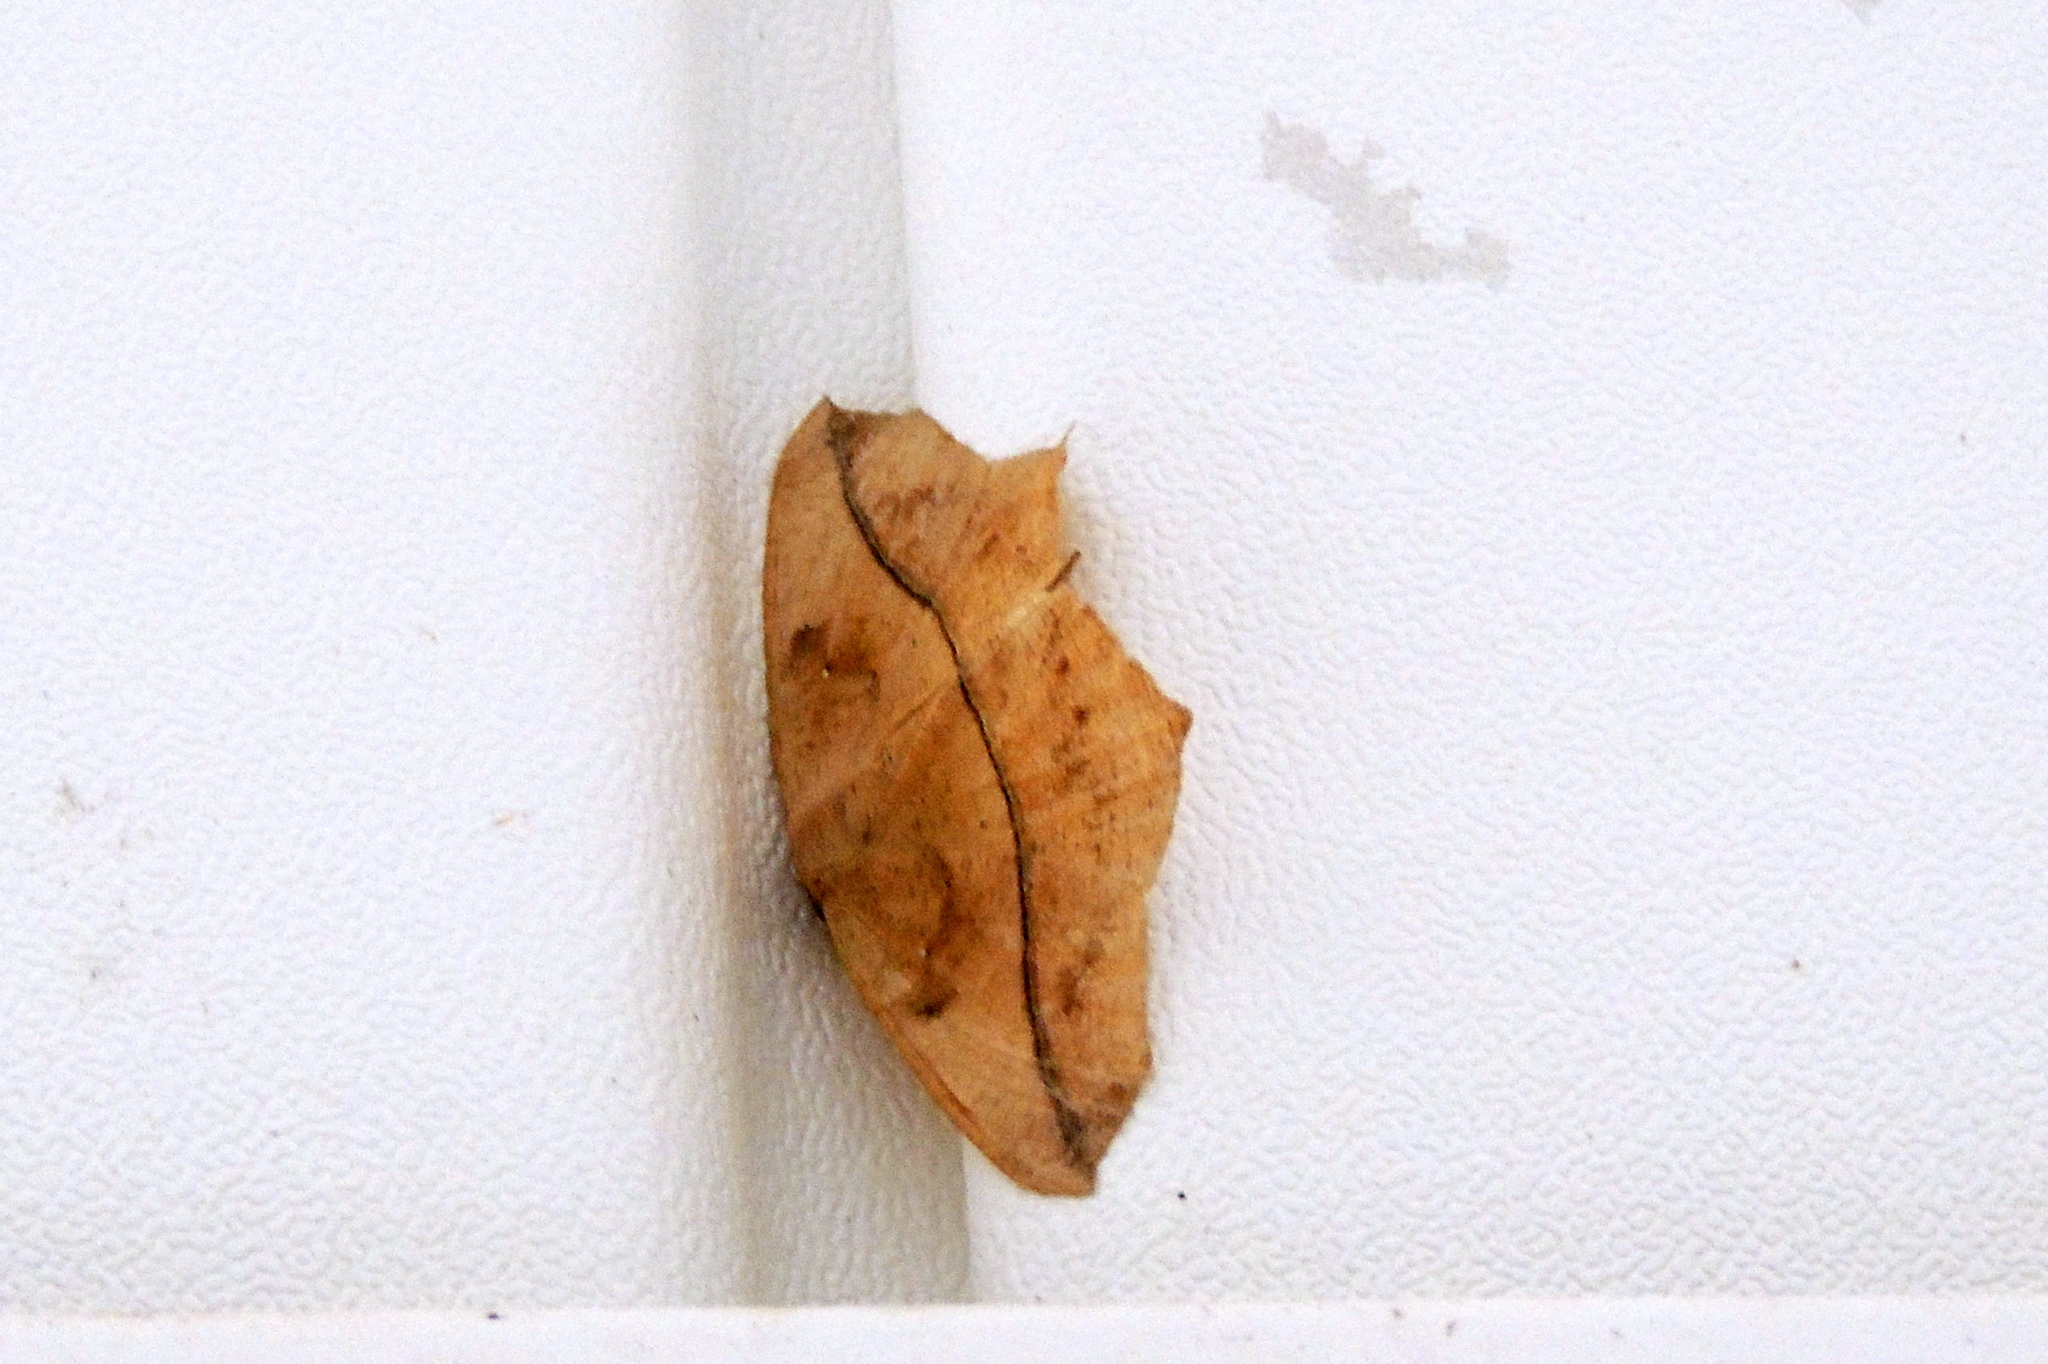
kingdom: Animalia
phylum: Arthropoda
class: Insecta
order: Lepidoptera
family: Geometridae
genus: Prochoerodes
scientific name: Prochoerodes lineola
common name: Large maple spanworm
